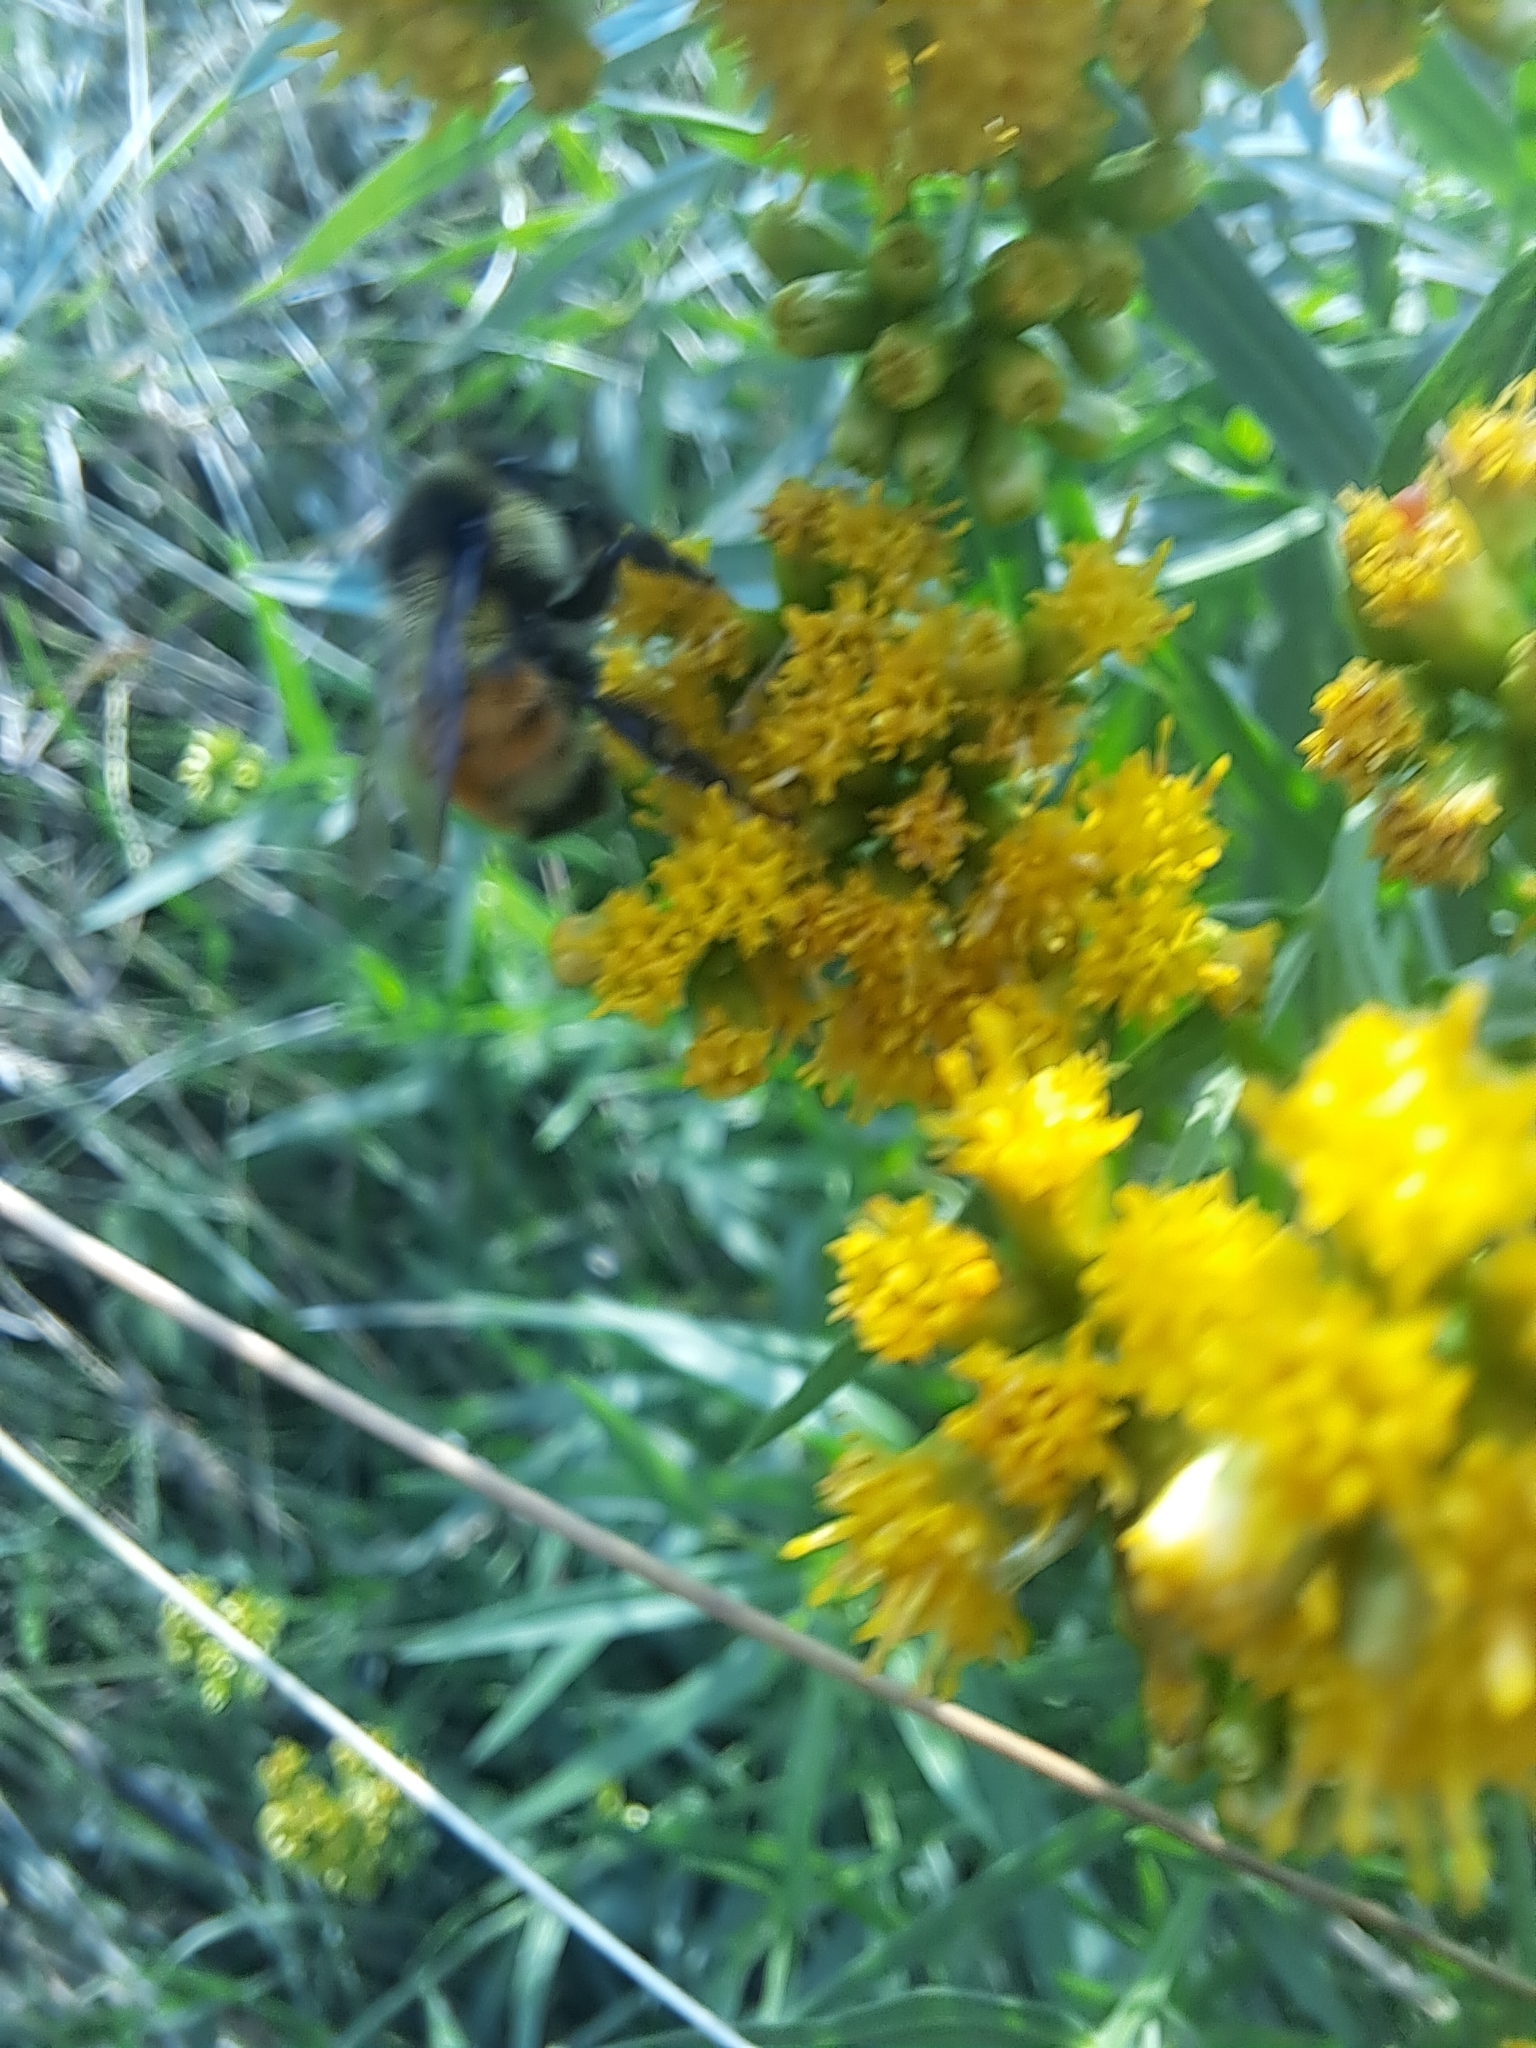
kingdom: Animalia
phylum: Arthropoda
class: Insecta
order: Hymenoptera
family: Apidae
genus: Bombus
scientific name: Bombus ternarius
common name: Tri-colored bumble bee
